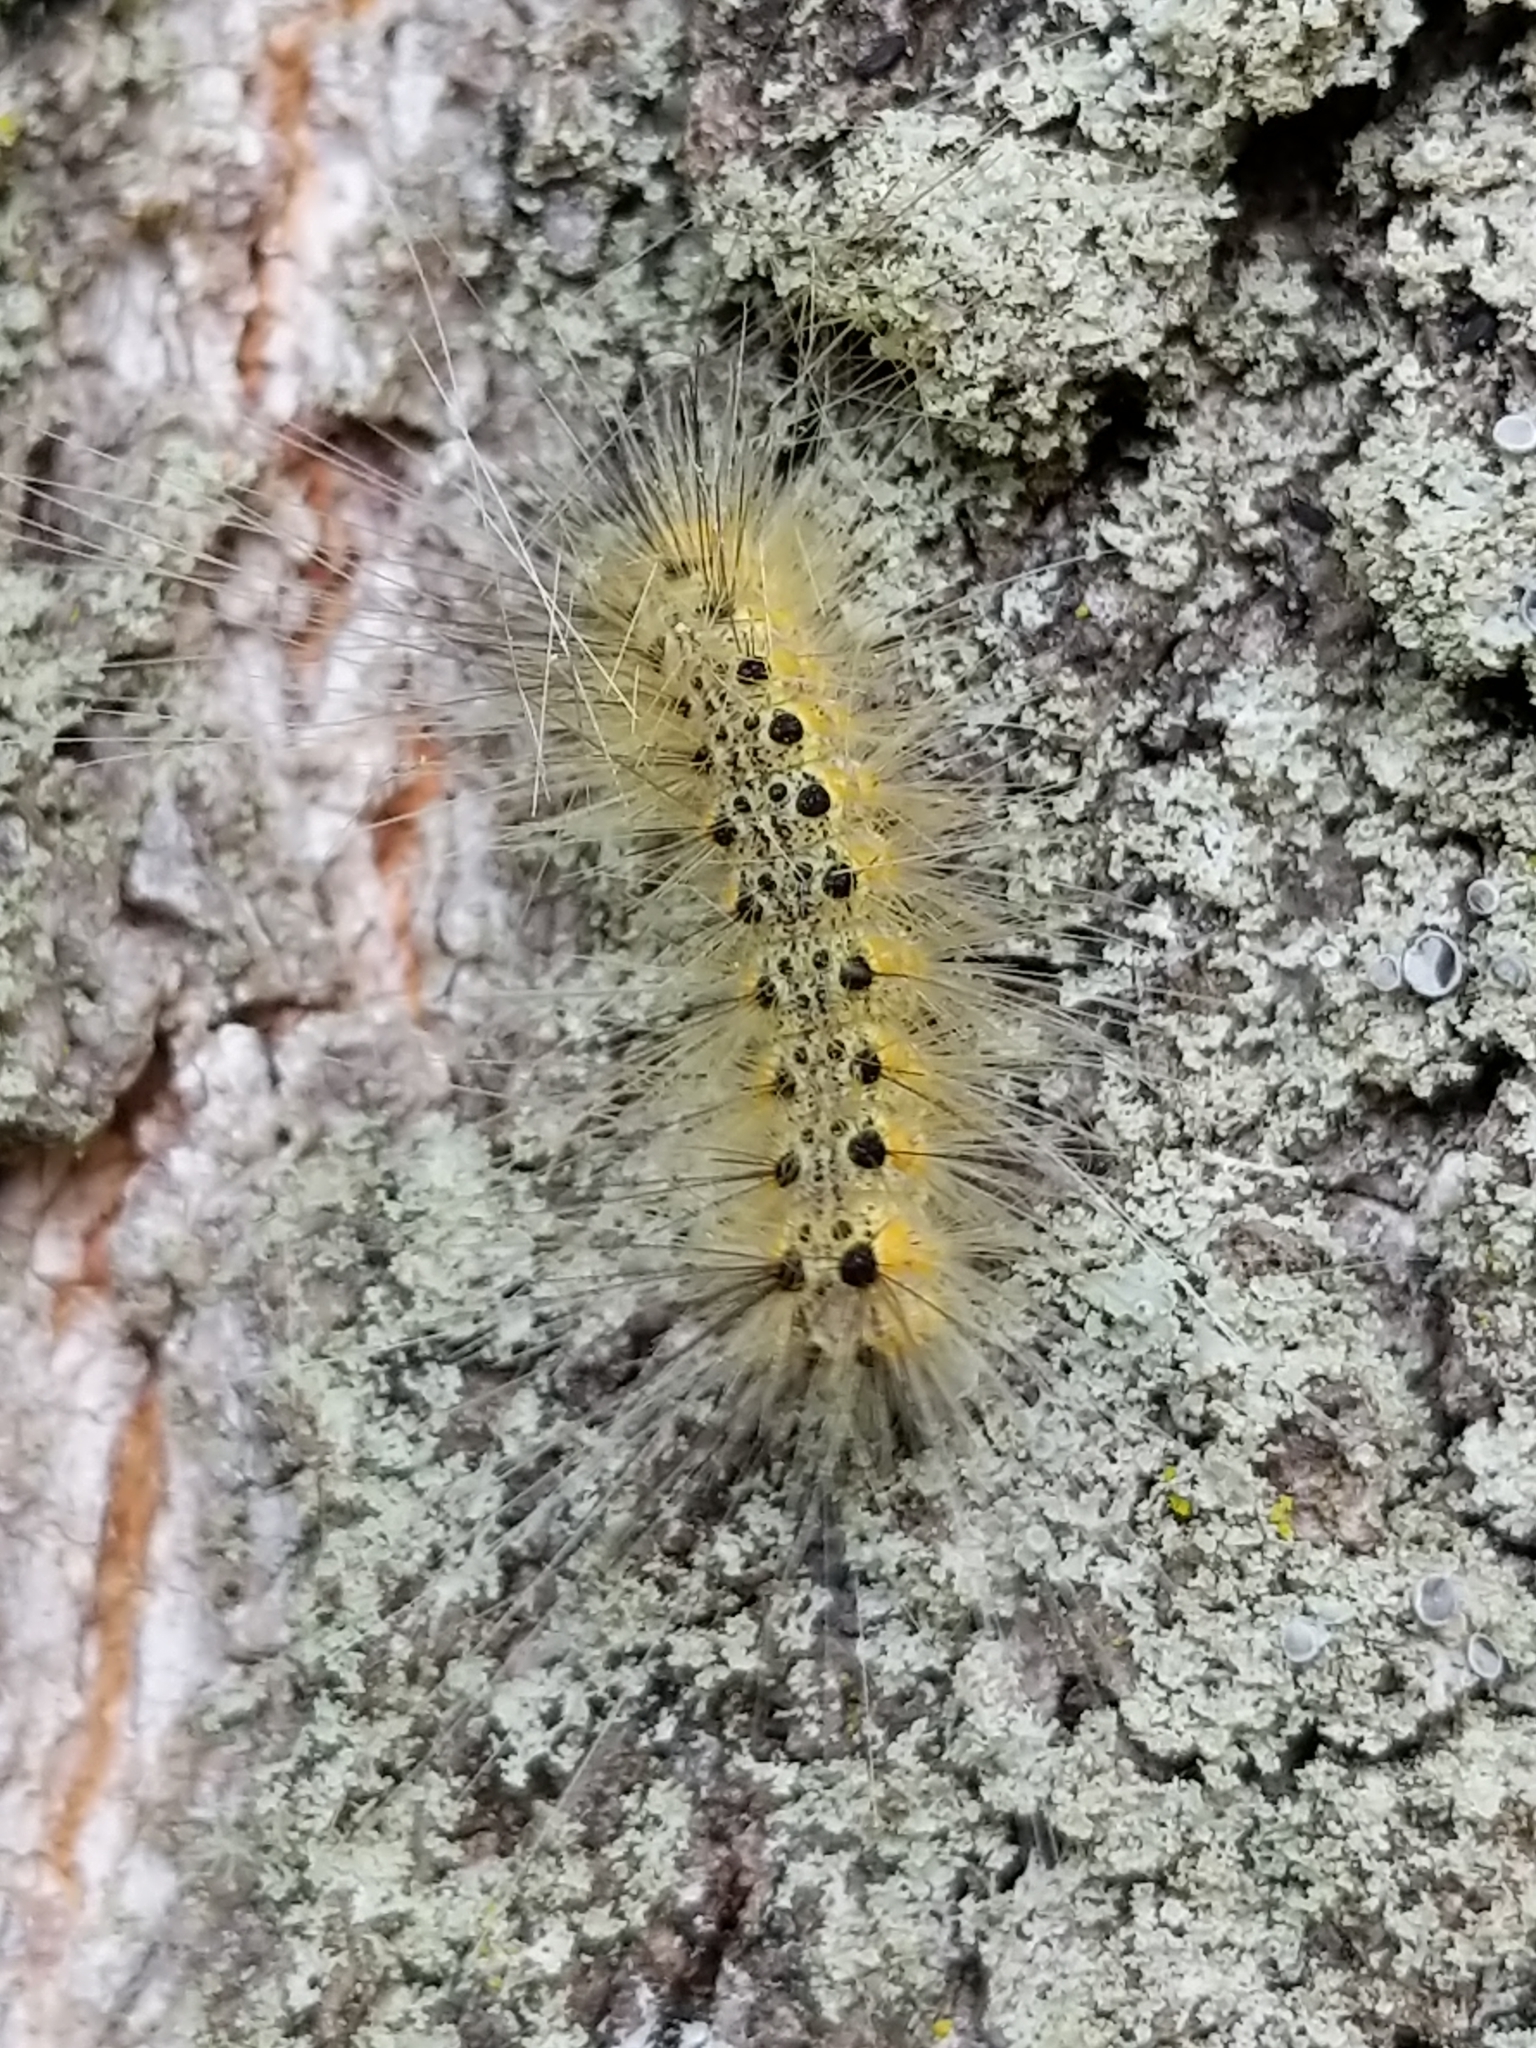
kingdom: Animalia
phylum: Arthropoda
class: Insecta
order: Lepidoptera
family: Erebidae
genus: Hyphantria
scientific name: Hyphantria cunea
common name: American white moth
